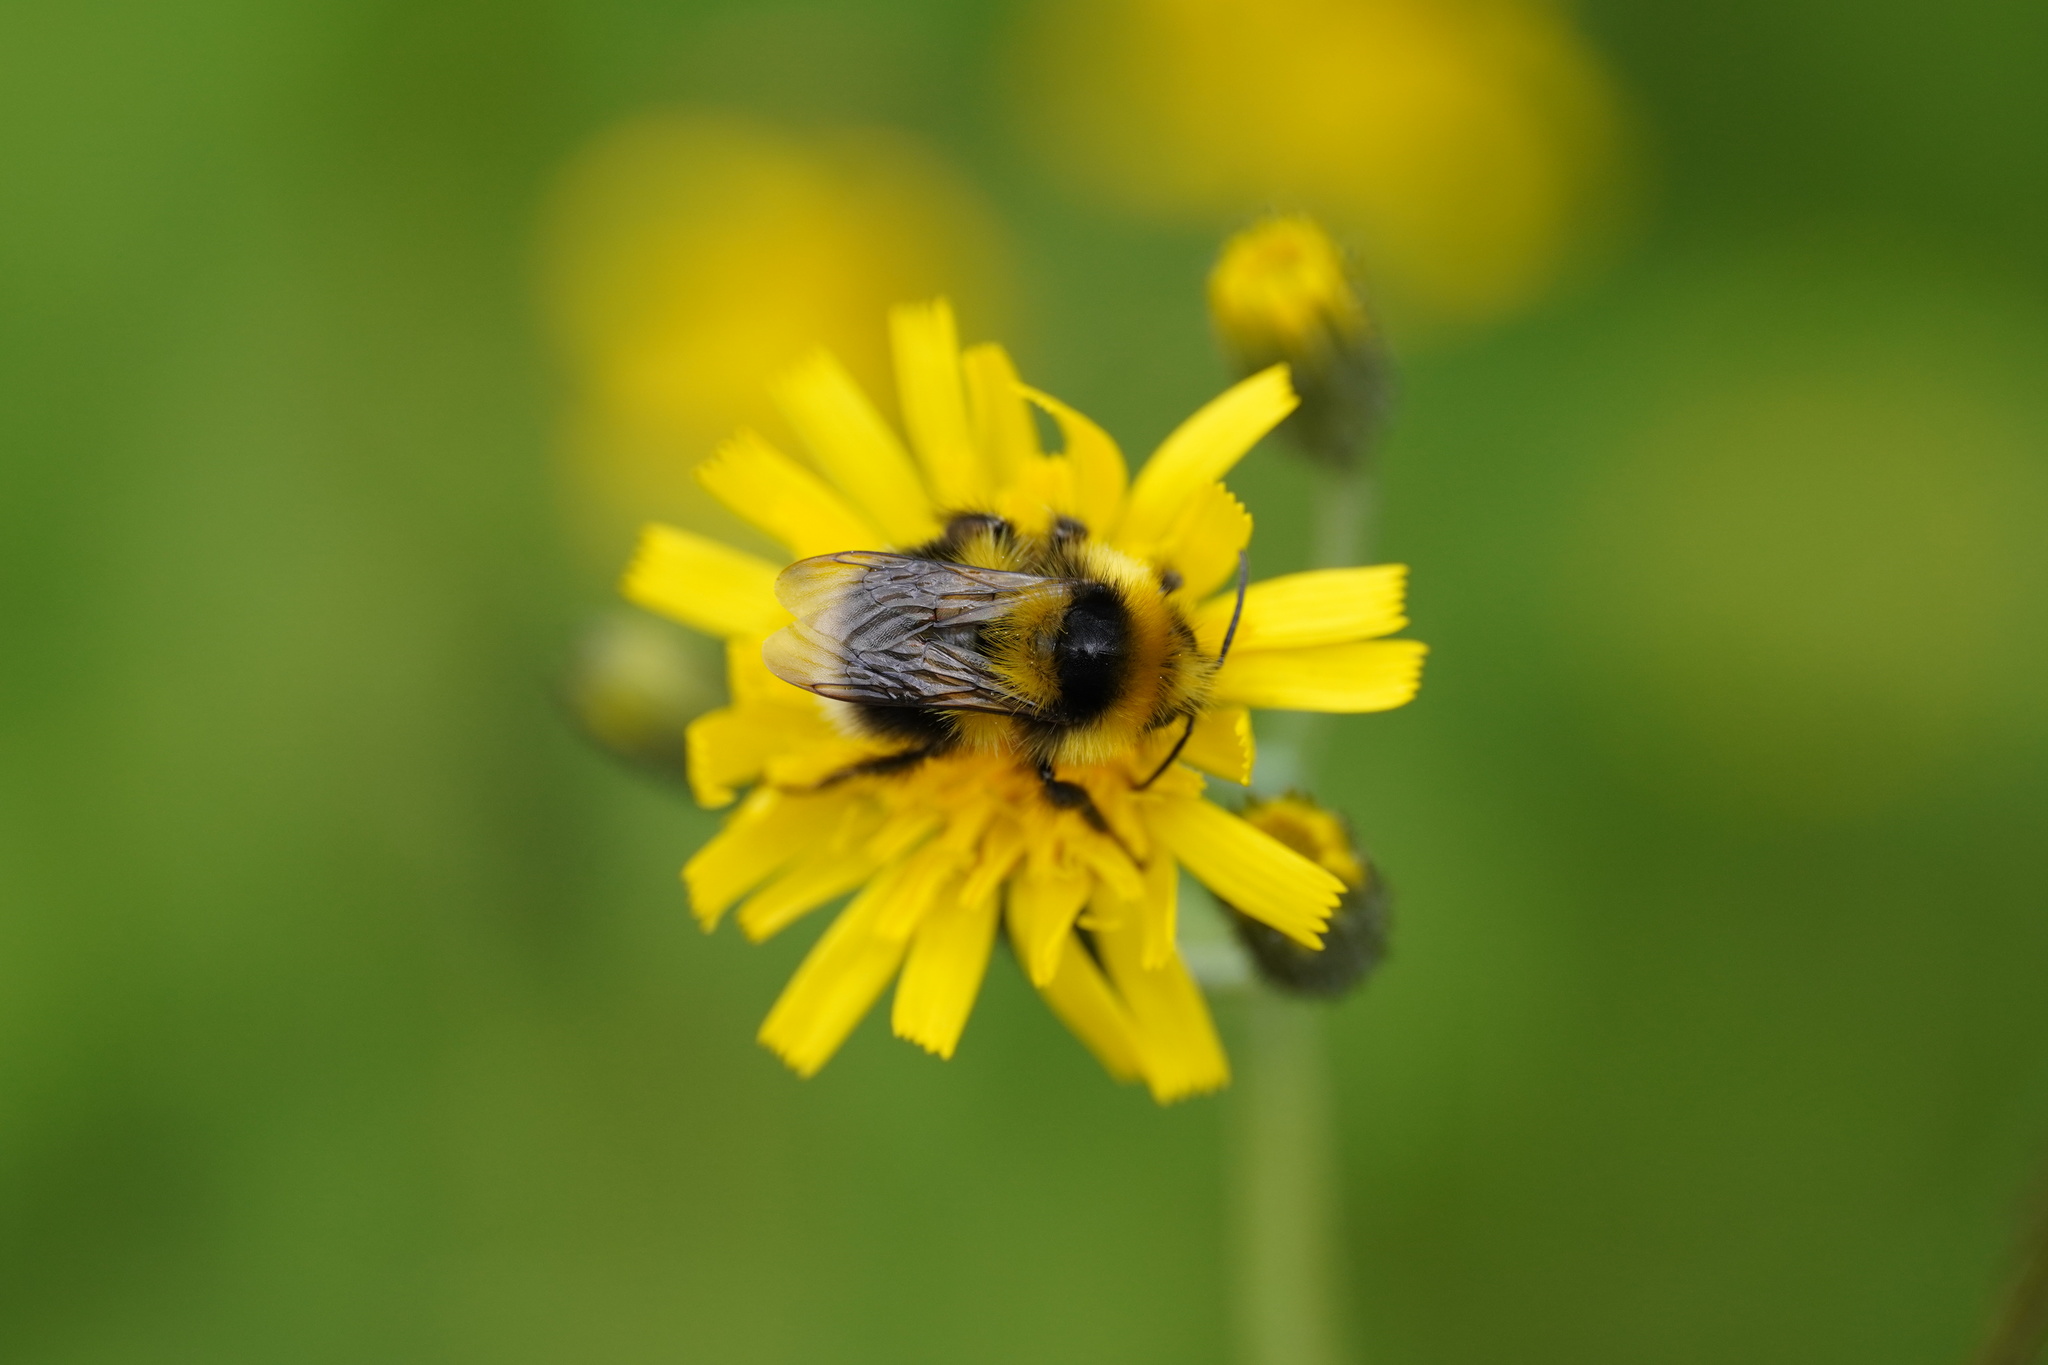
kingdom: Animalia
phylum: Arthropoda
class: Insecta
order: Hymenoptera
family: Apidae
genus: Bombus
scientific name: Bombus jonellus
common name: Heath humble-bee
